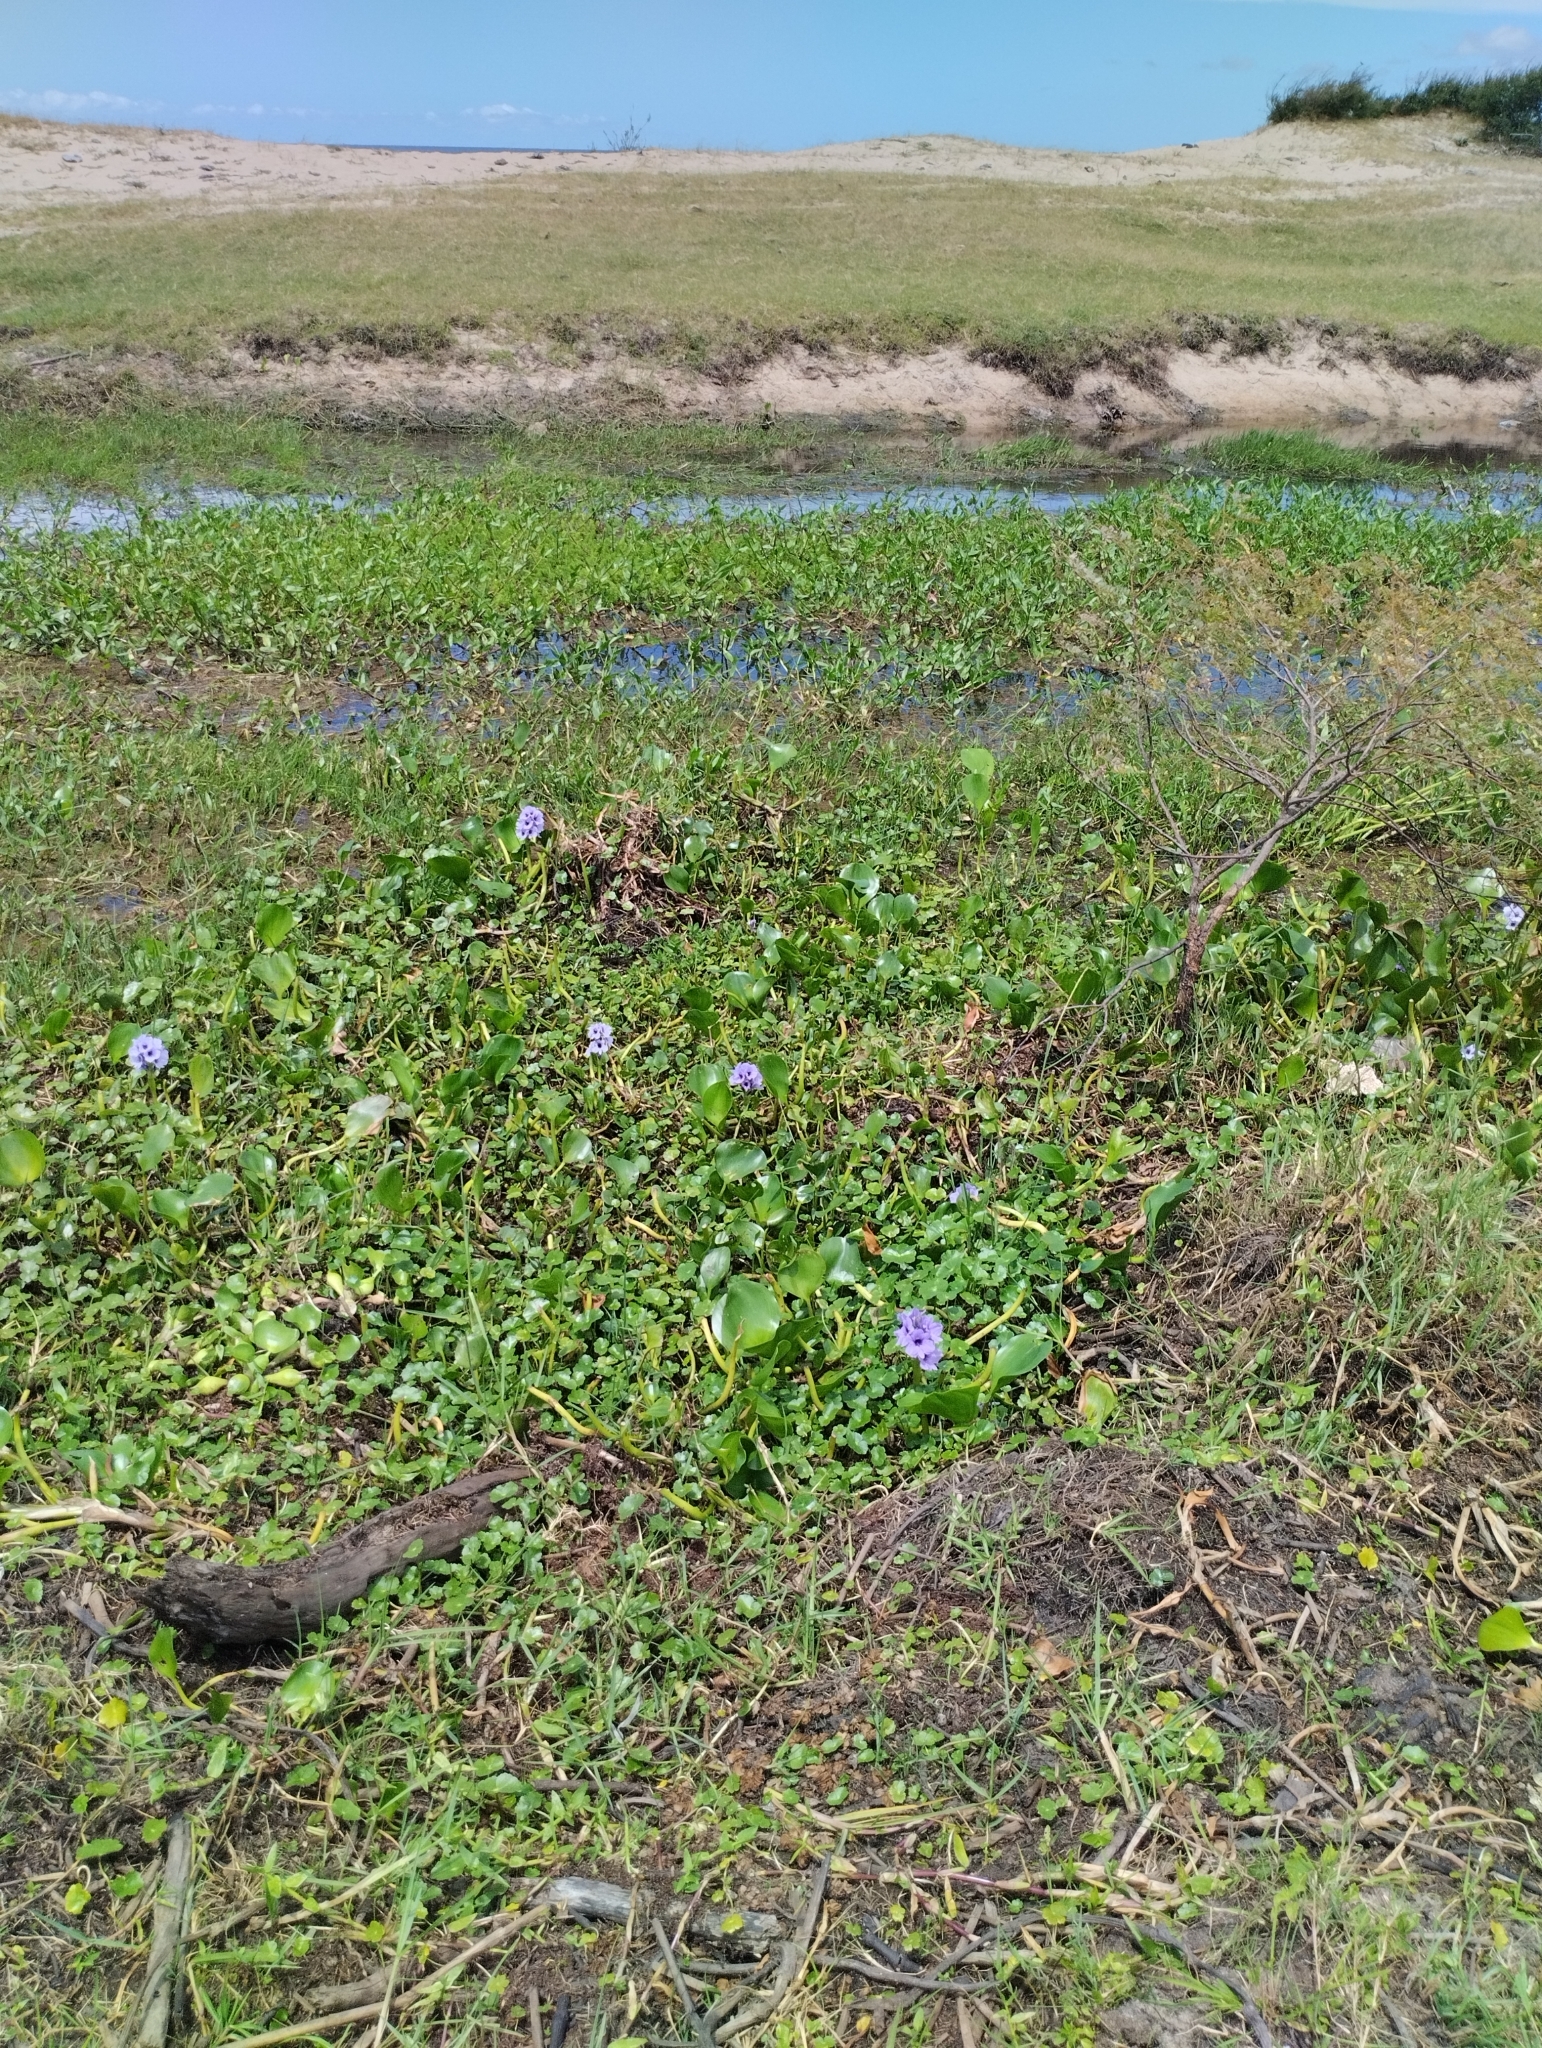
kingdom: Plantae
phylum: Tracheophyta
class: Liliopsida
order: Commelinales
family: Pontederiaceae
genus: Pontederia
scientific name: Pontederia azurea
